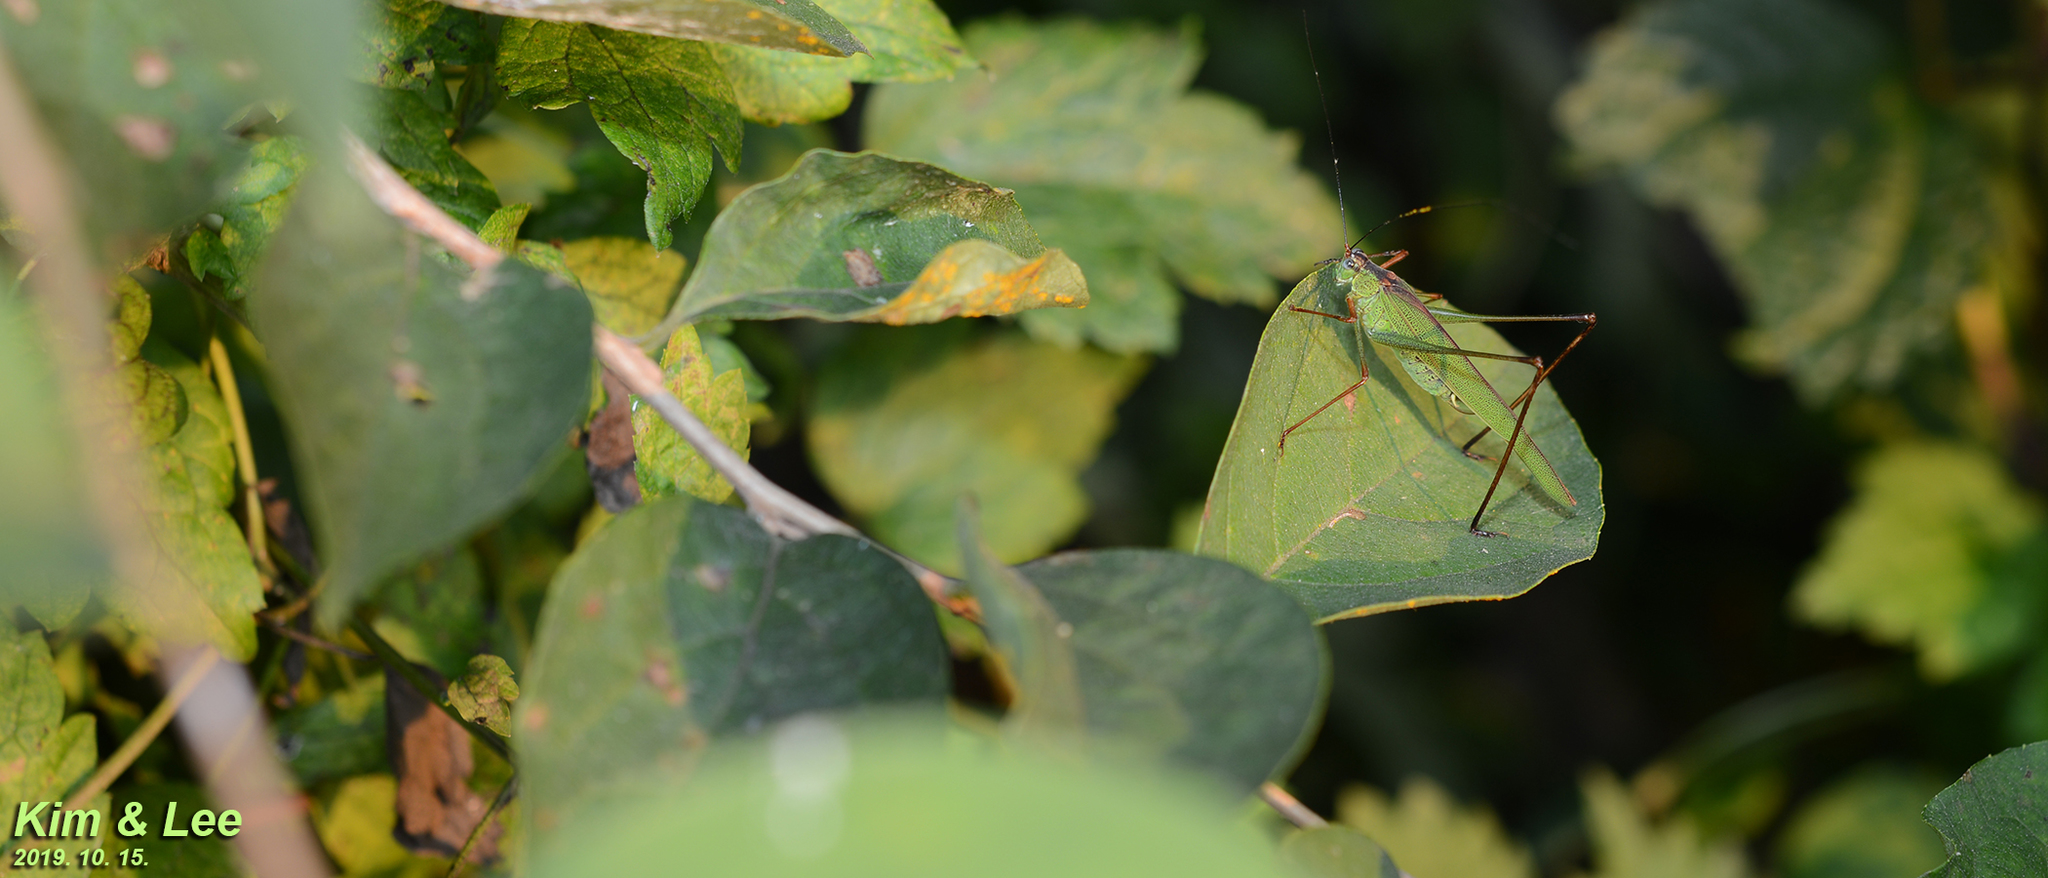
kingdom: Animalia
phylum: Arthropoda
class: Insecta
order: Orthoptera
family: Tettigoniidae
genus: Phaneroptera
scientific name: Phaneroptera nigroantennata
